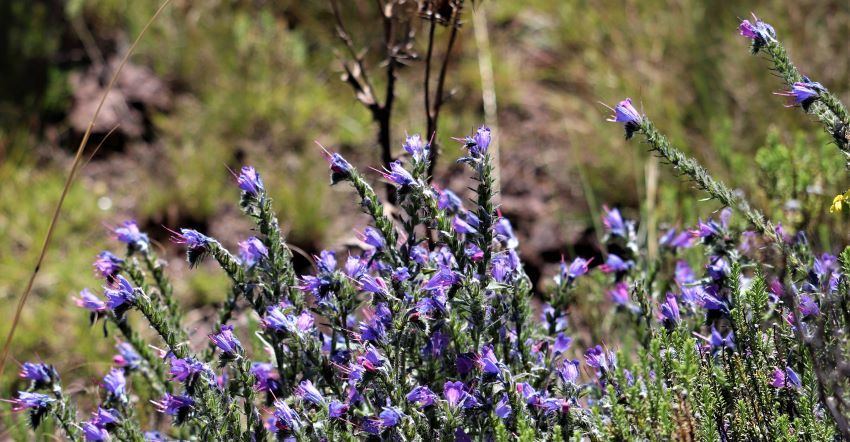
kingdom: Plantae
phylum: Tracheophyta
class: Magnoliopsida
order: Boraginales
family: Boraginaceae
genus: Echium
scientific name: Echium vulgare
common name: Common viper's bugloss
